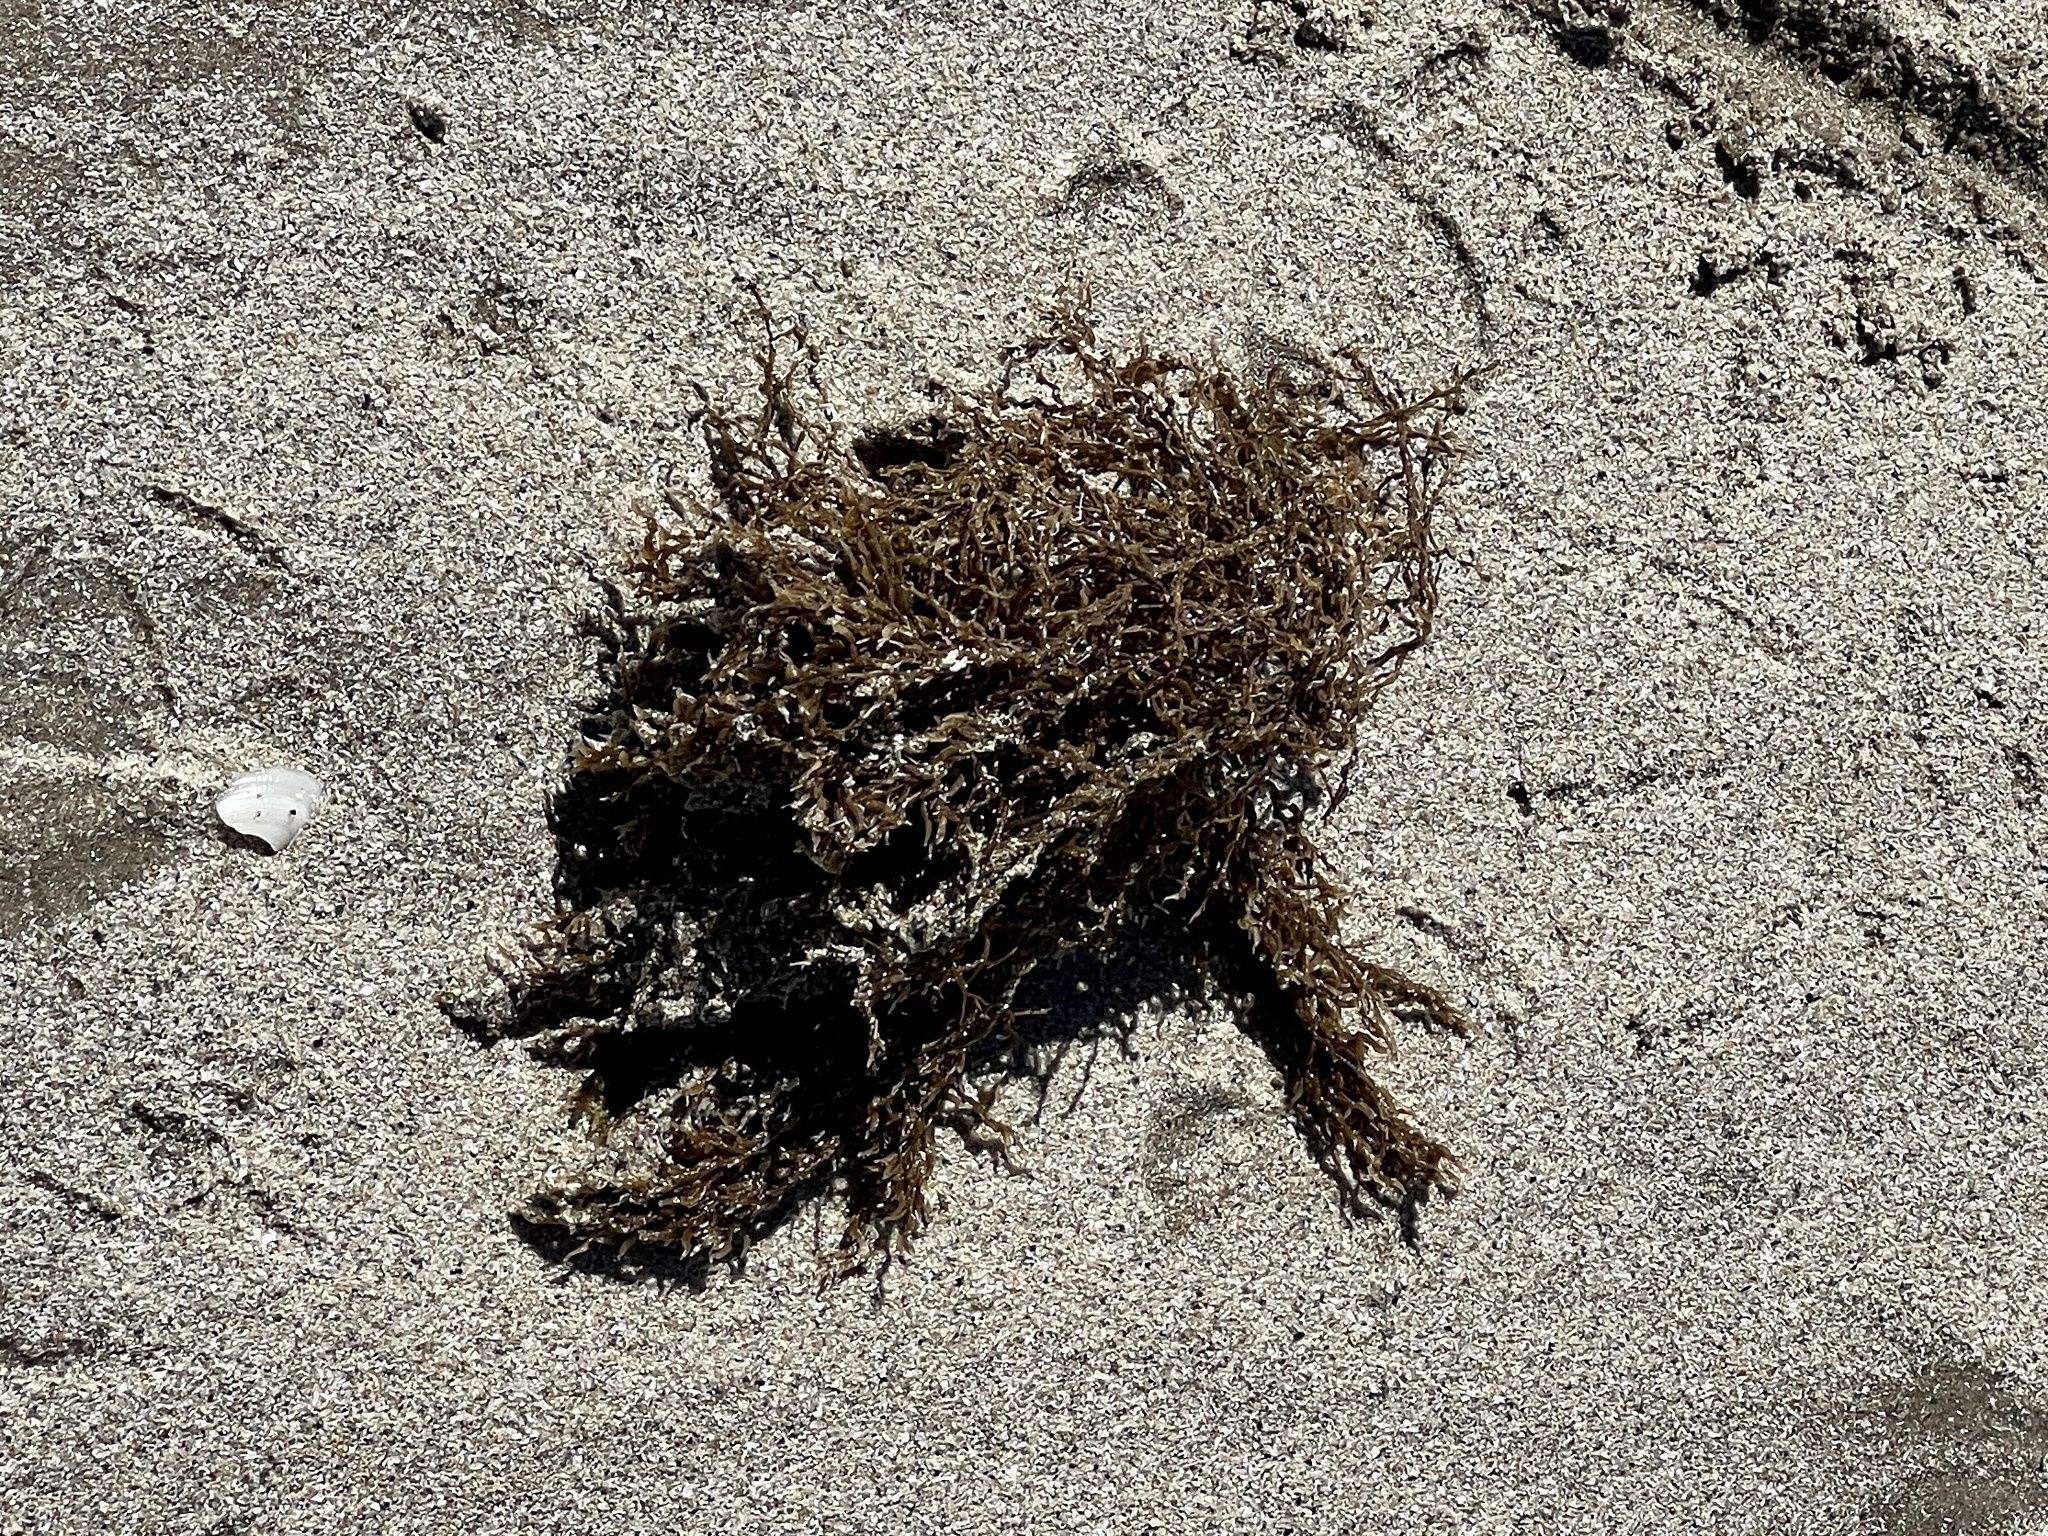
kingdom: Chromista
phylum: Ochrophyta
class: Phaeophyceae
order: Fucales
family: Sargassaceae
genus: Sargassum
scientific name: Sargassum fluitans
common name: Sargassum seaweed
